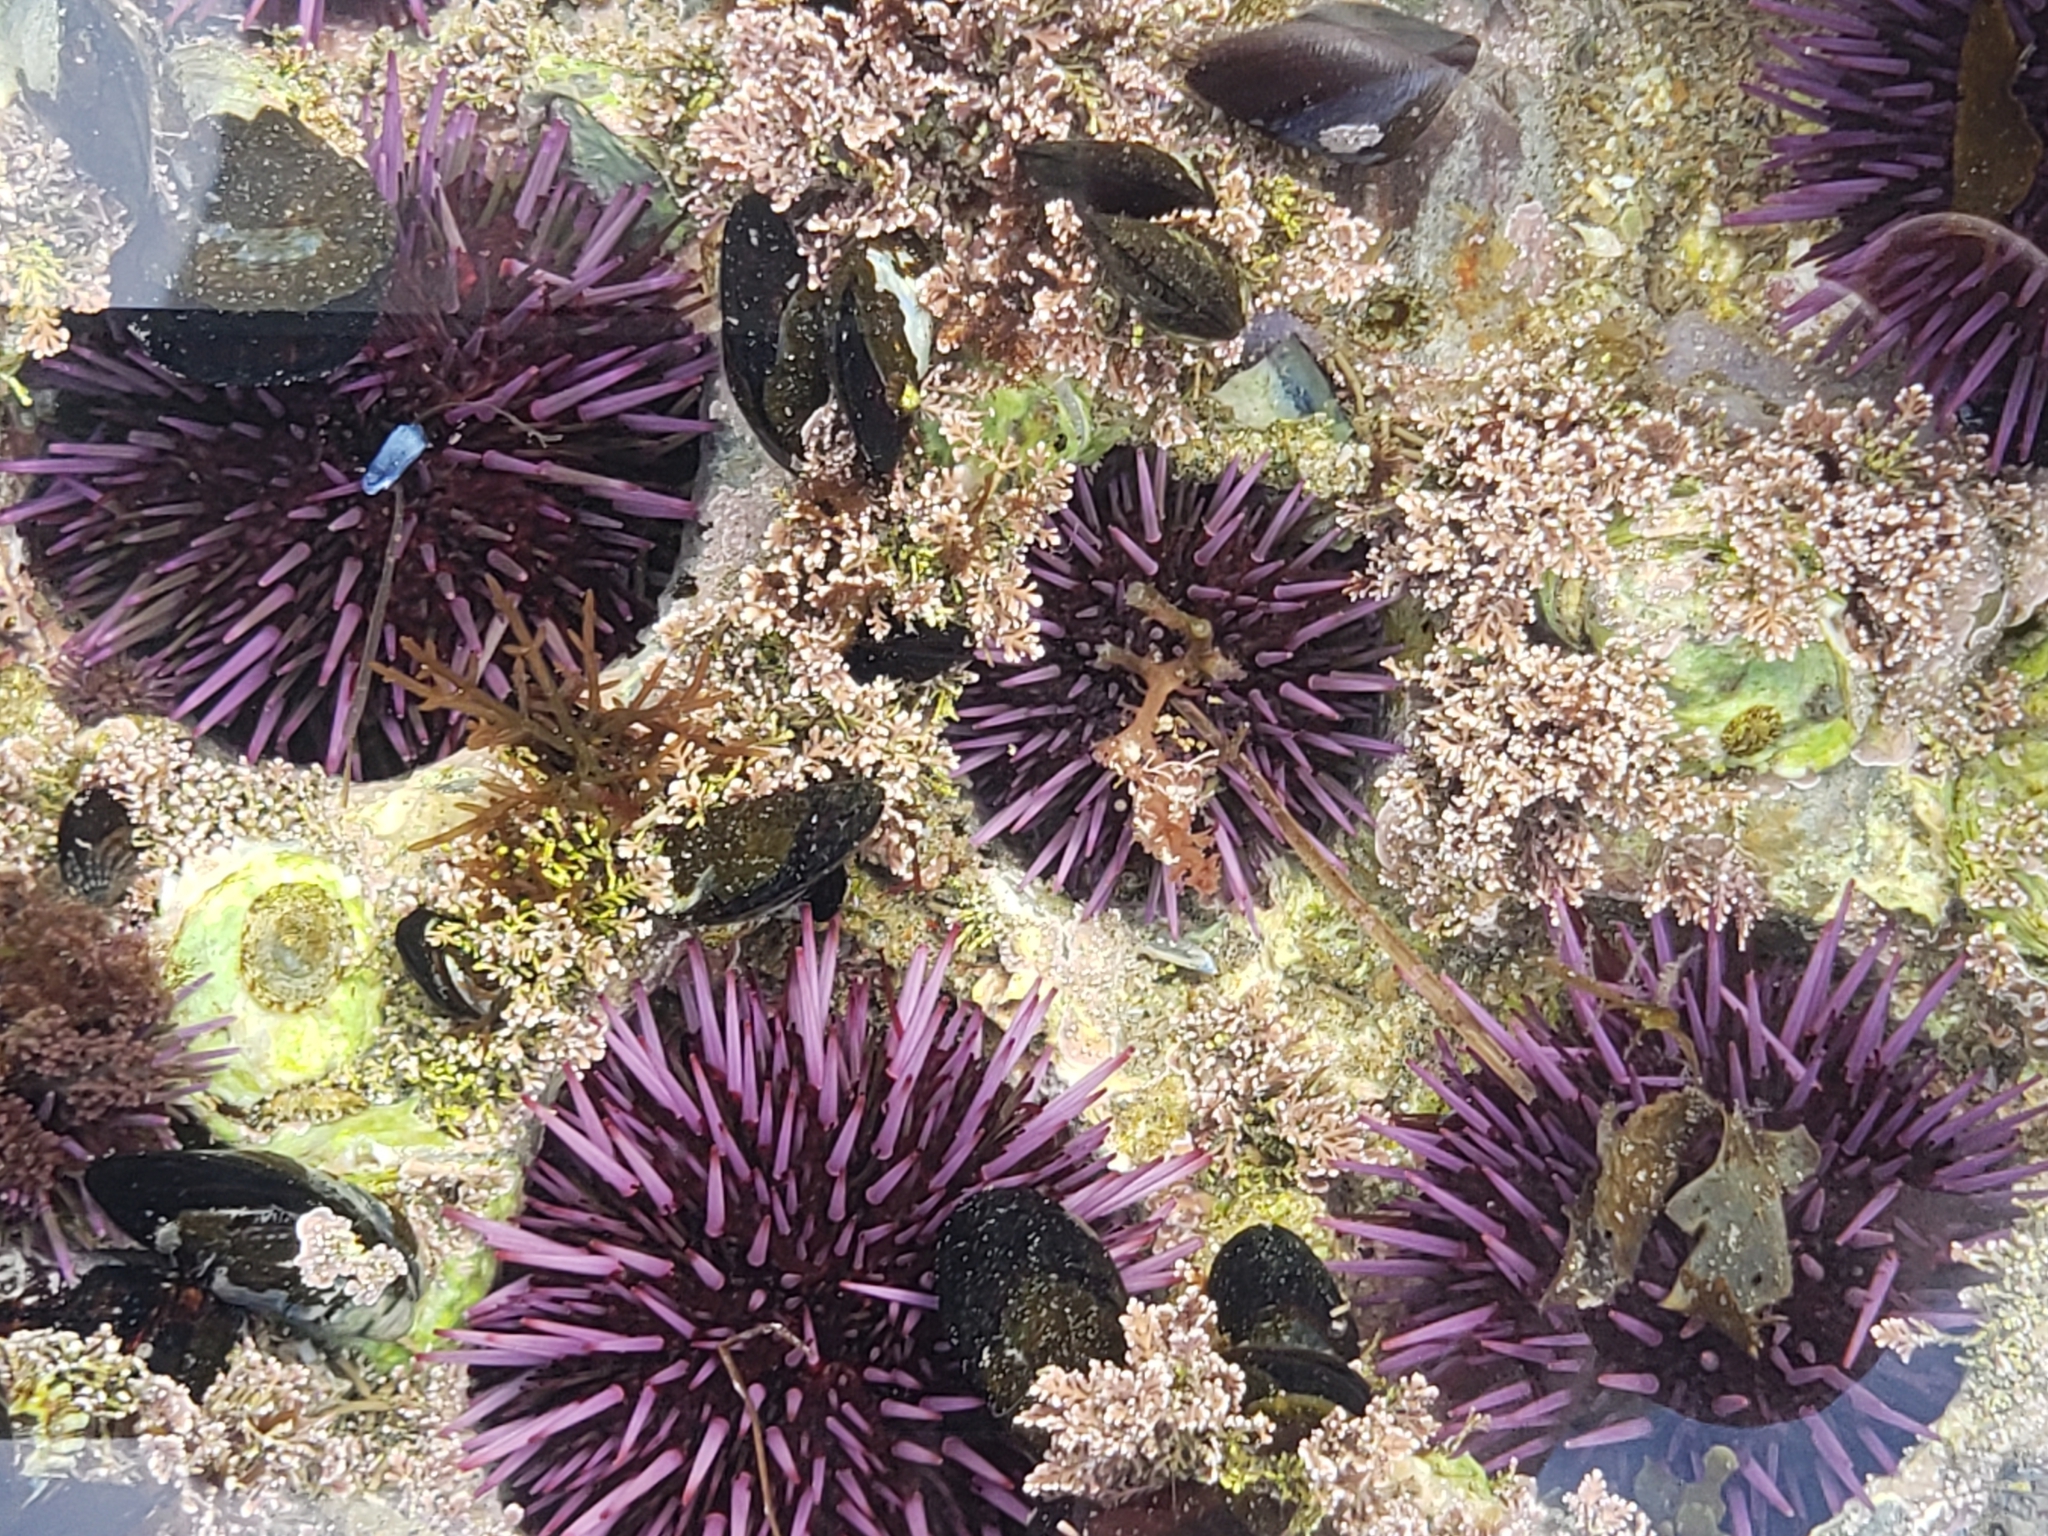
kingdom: Animalia
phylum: Echinodermata
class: Echinoidea
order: Camarodonta
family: Strongylocentrotidae
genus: Strongylocentrotus
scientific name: Strongylocentrotus purpuratus
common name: Purple sea urchin
